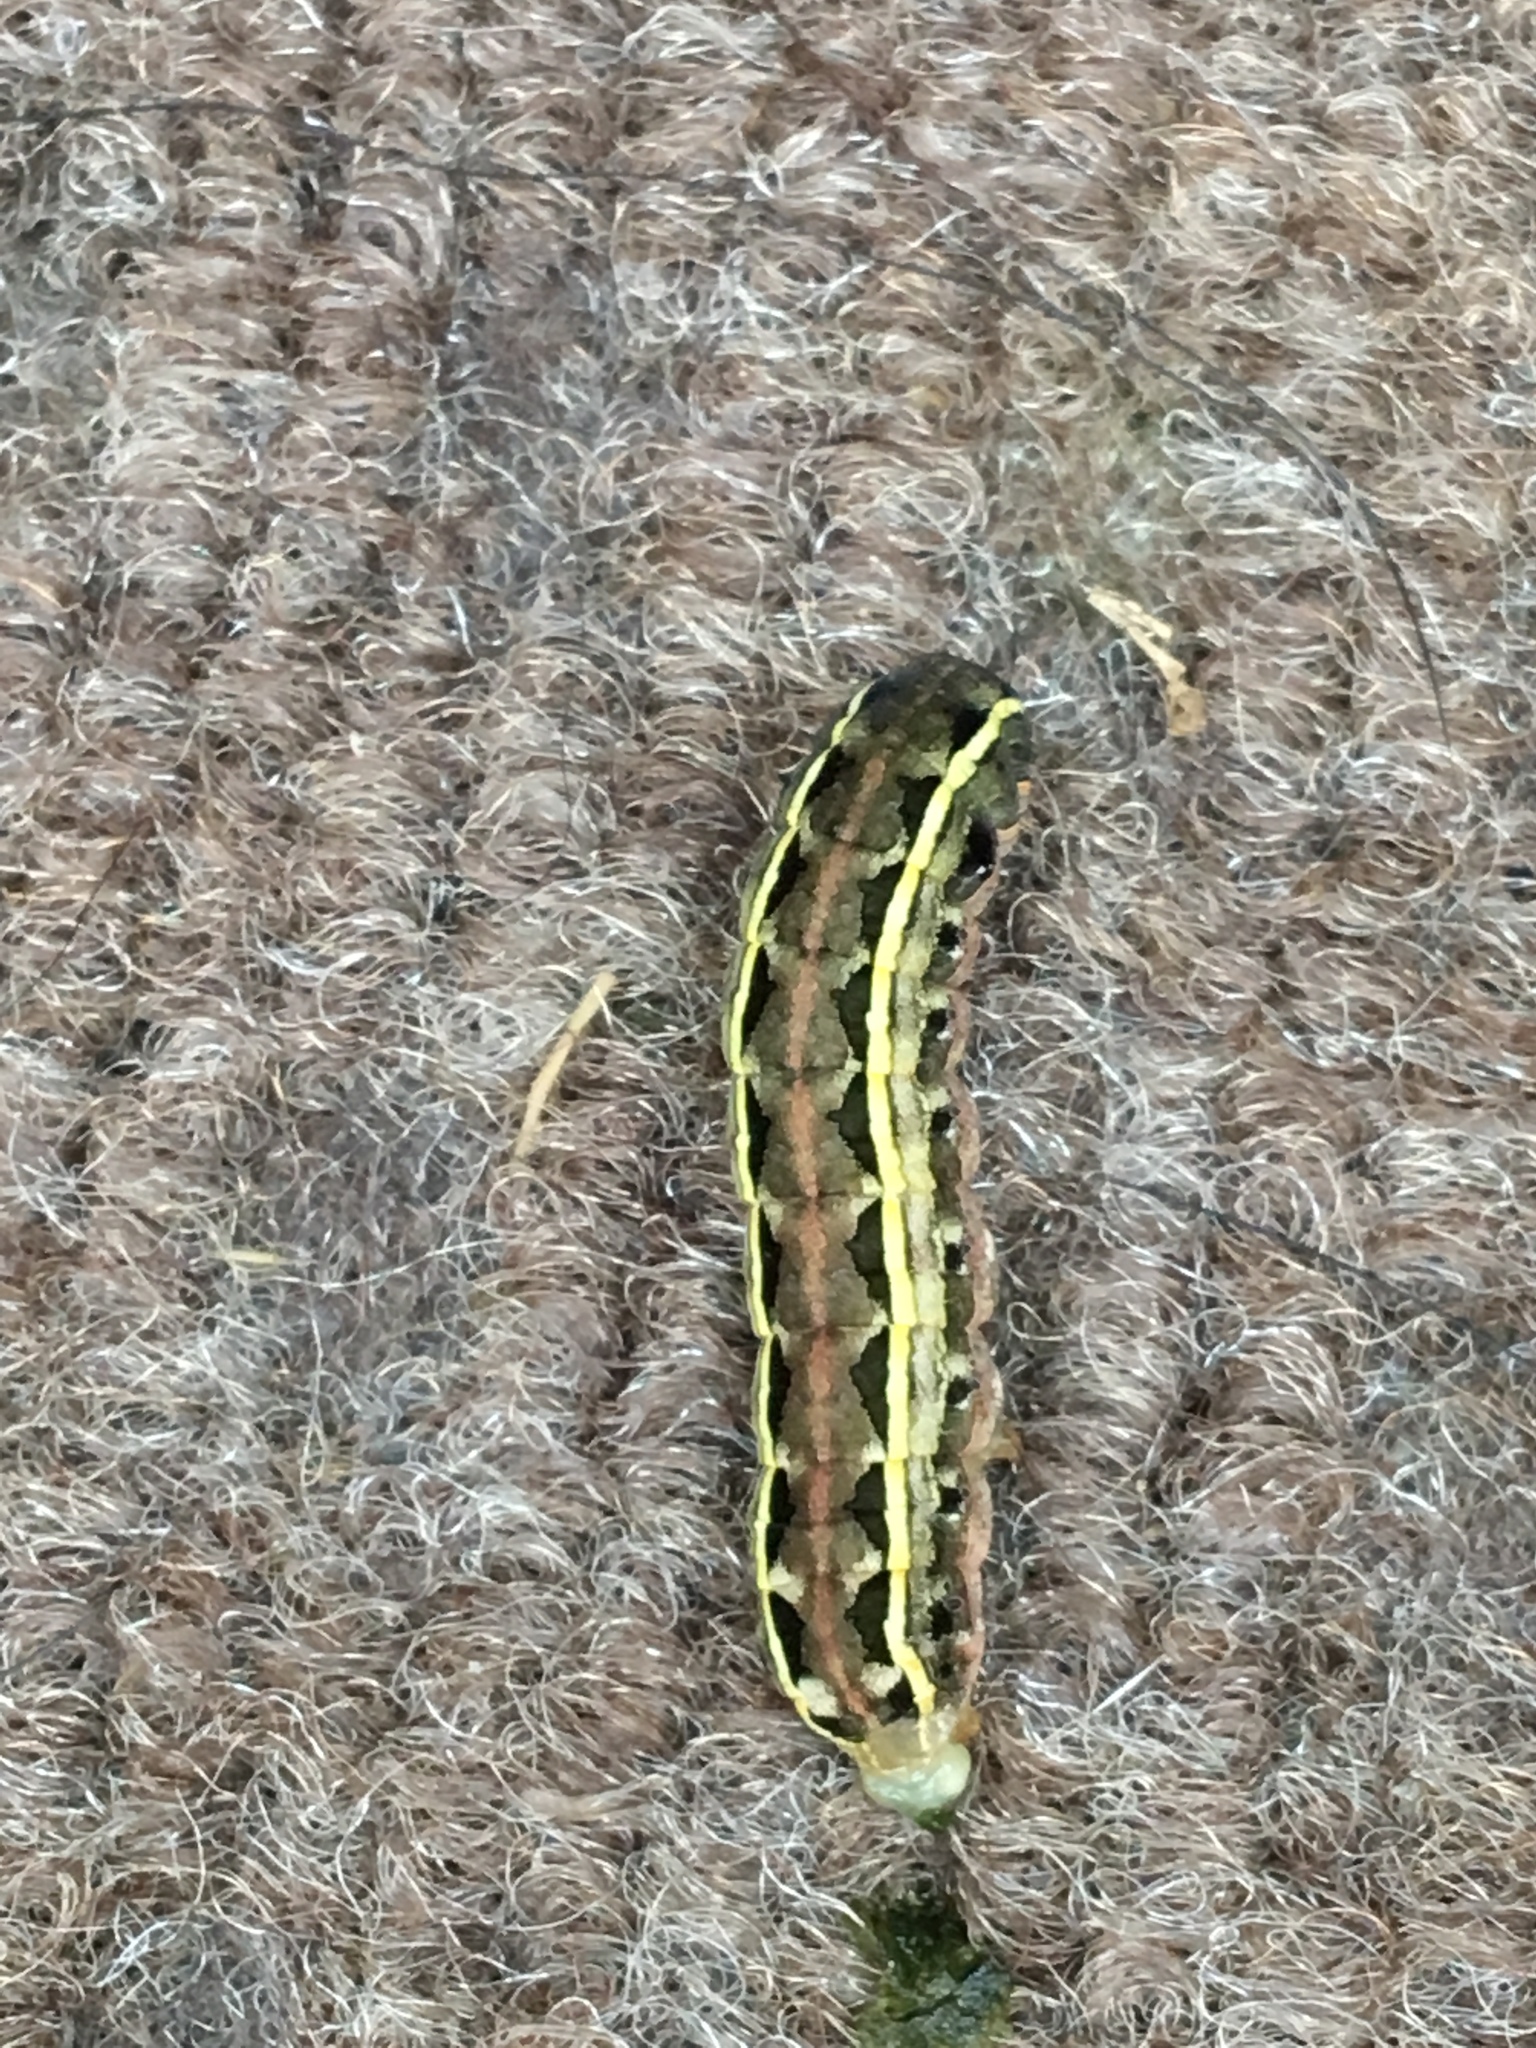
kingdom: Animalia
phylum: Arthropoda
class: Insecta
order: Lepidoptera
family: Noctuidae
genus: Spodoptera
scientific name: Spodoptera ornithogalli
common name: Yellow-striped armyworm
